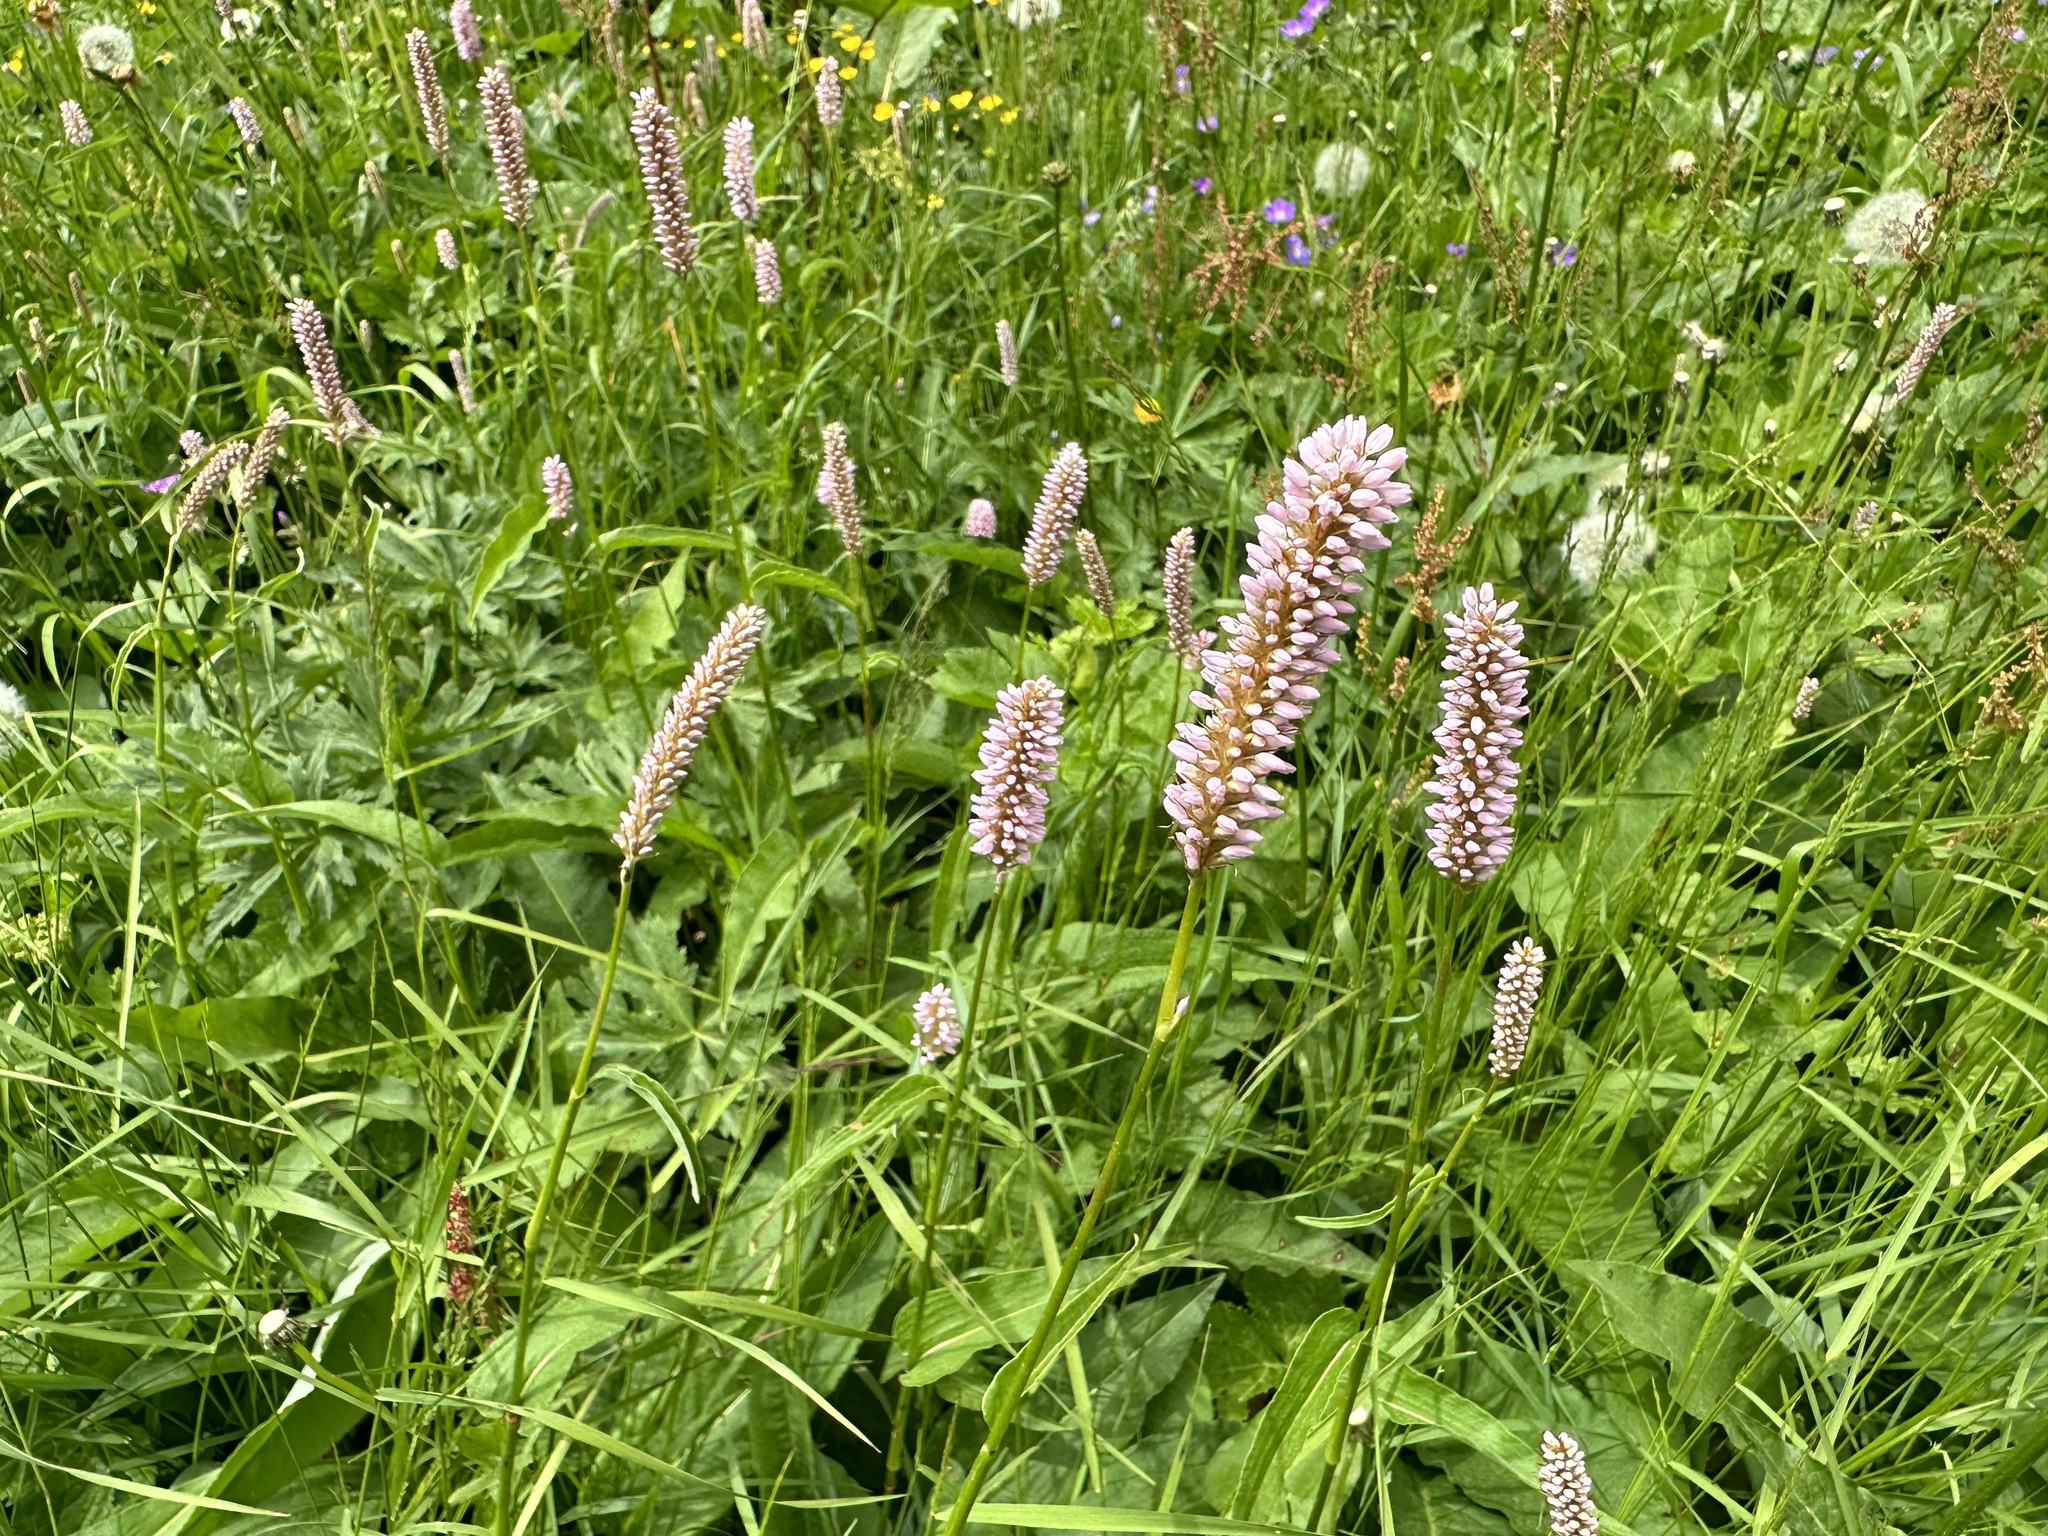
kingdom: Plantae
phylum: Tracheophyta
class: Magnoliopsida
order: Caryophyllales
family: Polygonaceae
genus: Bistorta
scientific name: Bistorta officinalis
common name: Common bistort
